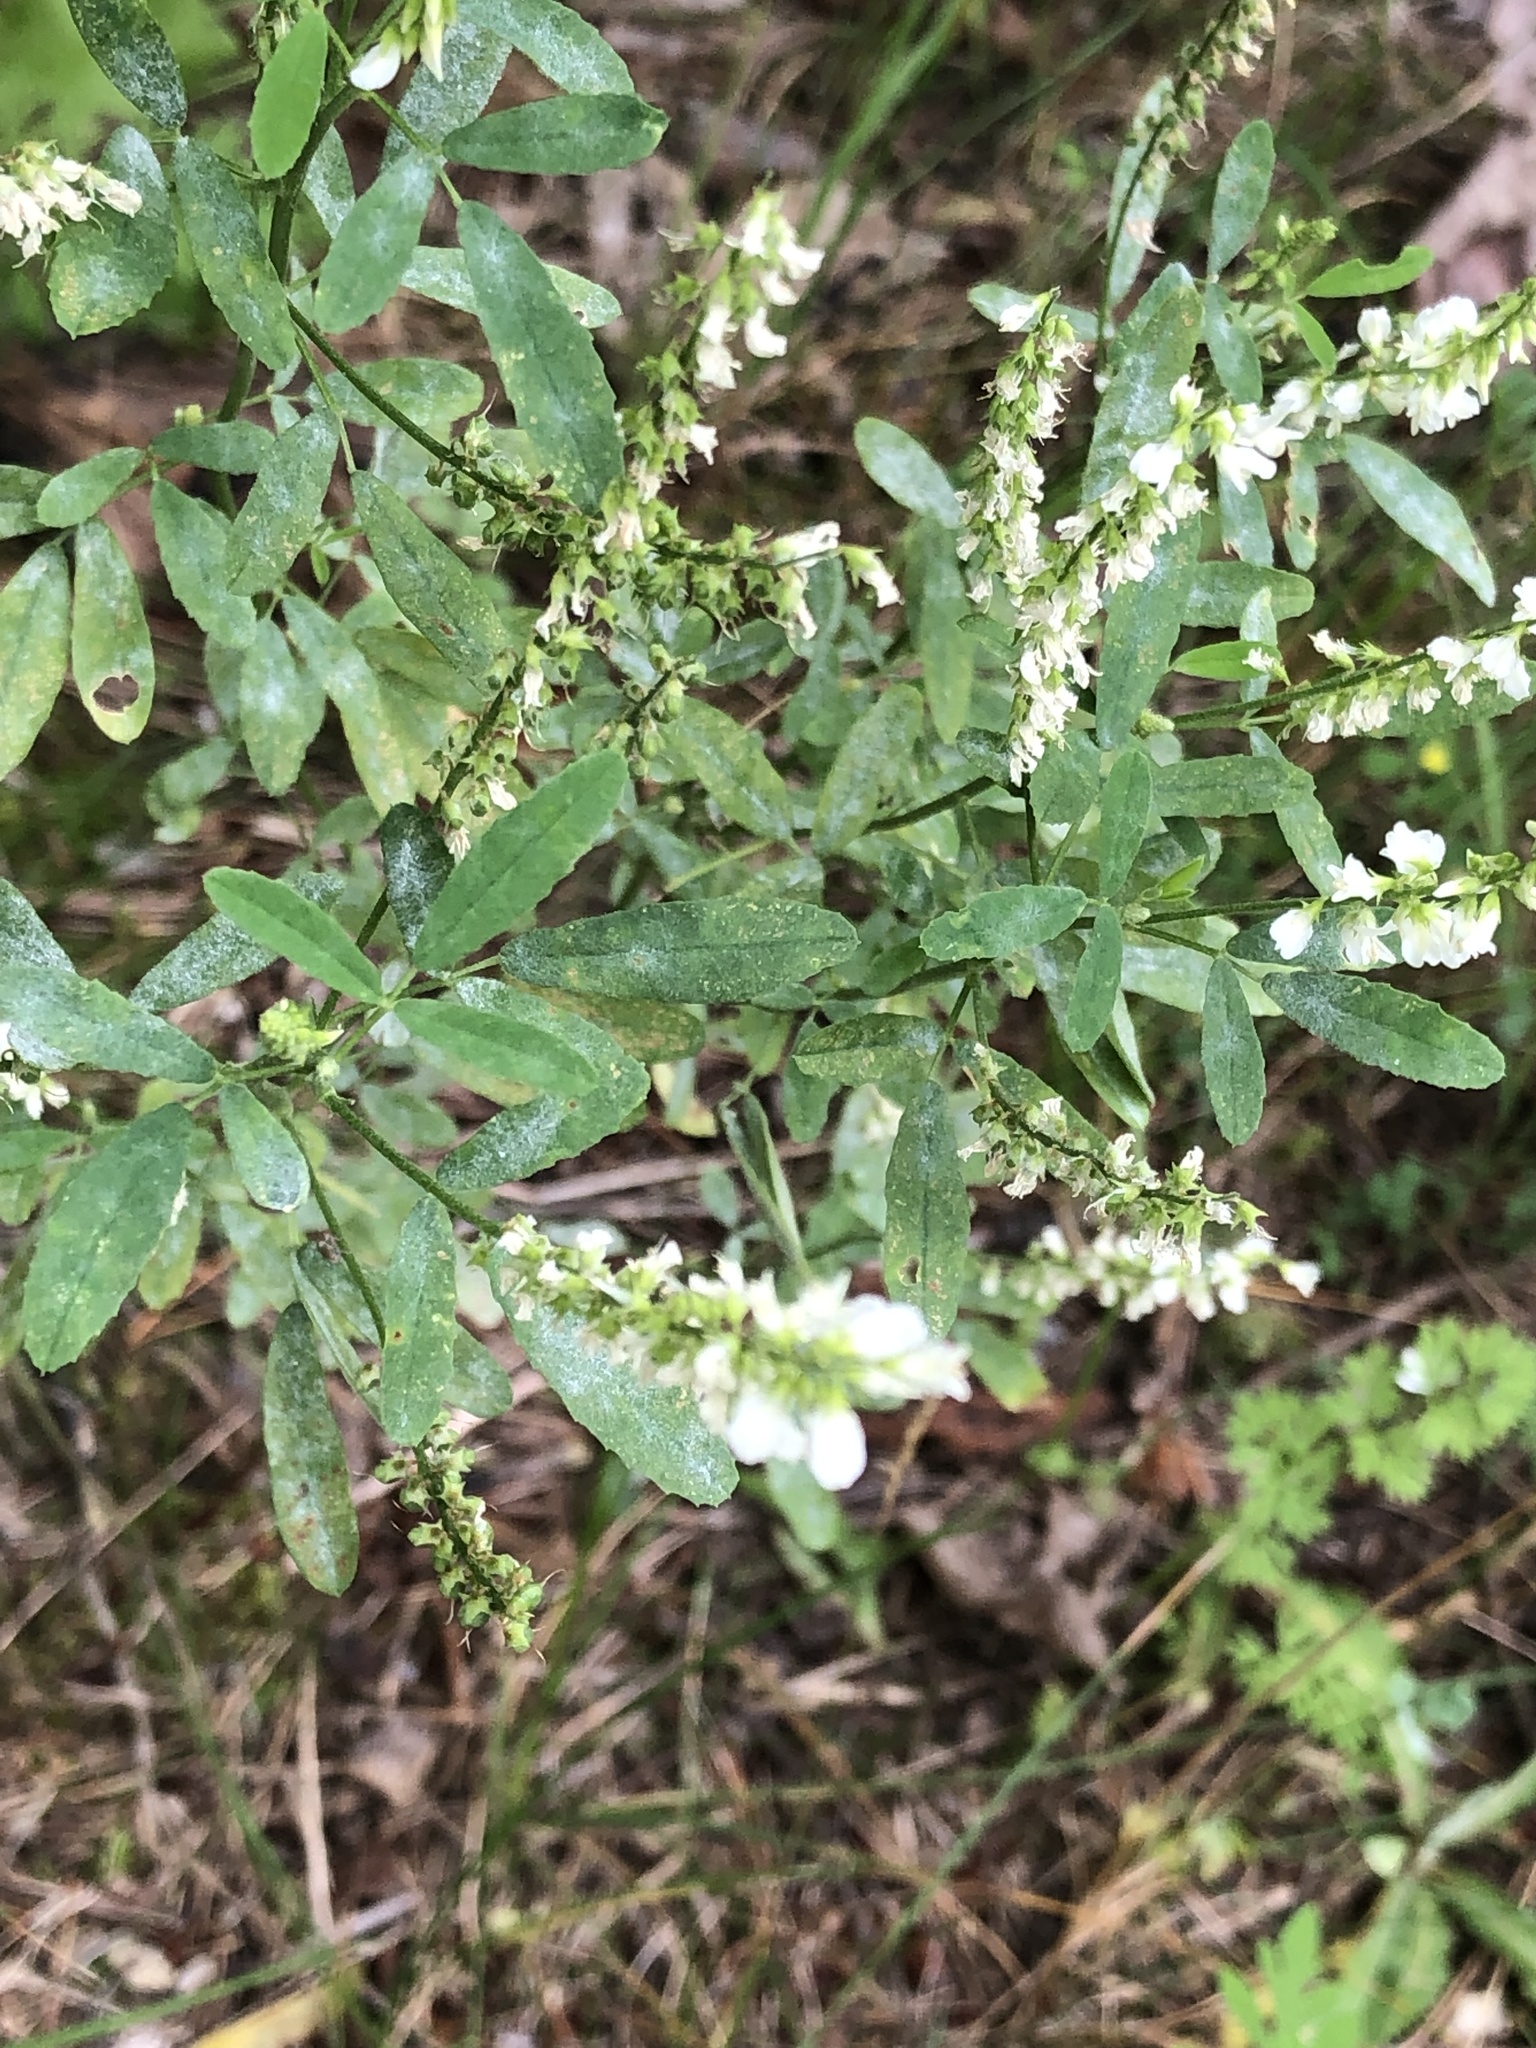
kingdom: Plantae
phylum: Tracheophyta
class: Magnoliopsida
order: Fabales
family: Fabaceae
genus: Melilotus
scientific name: Melilotus albus
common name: White melilot
